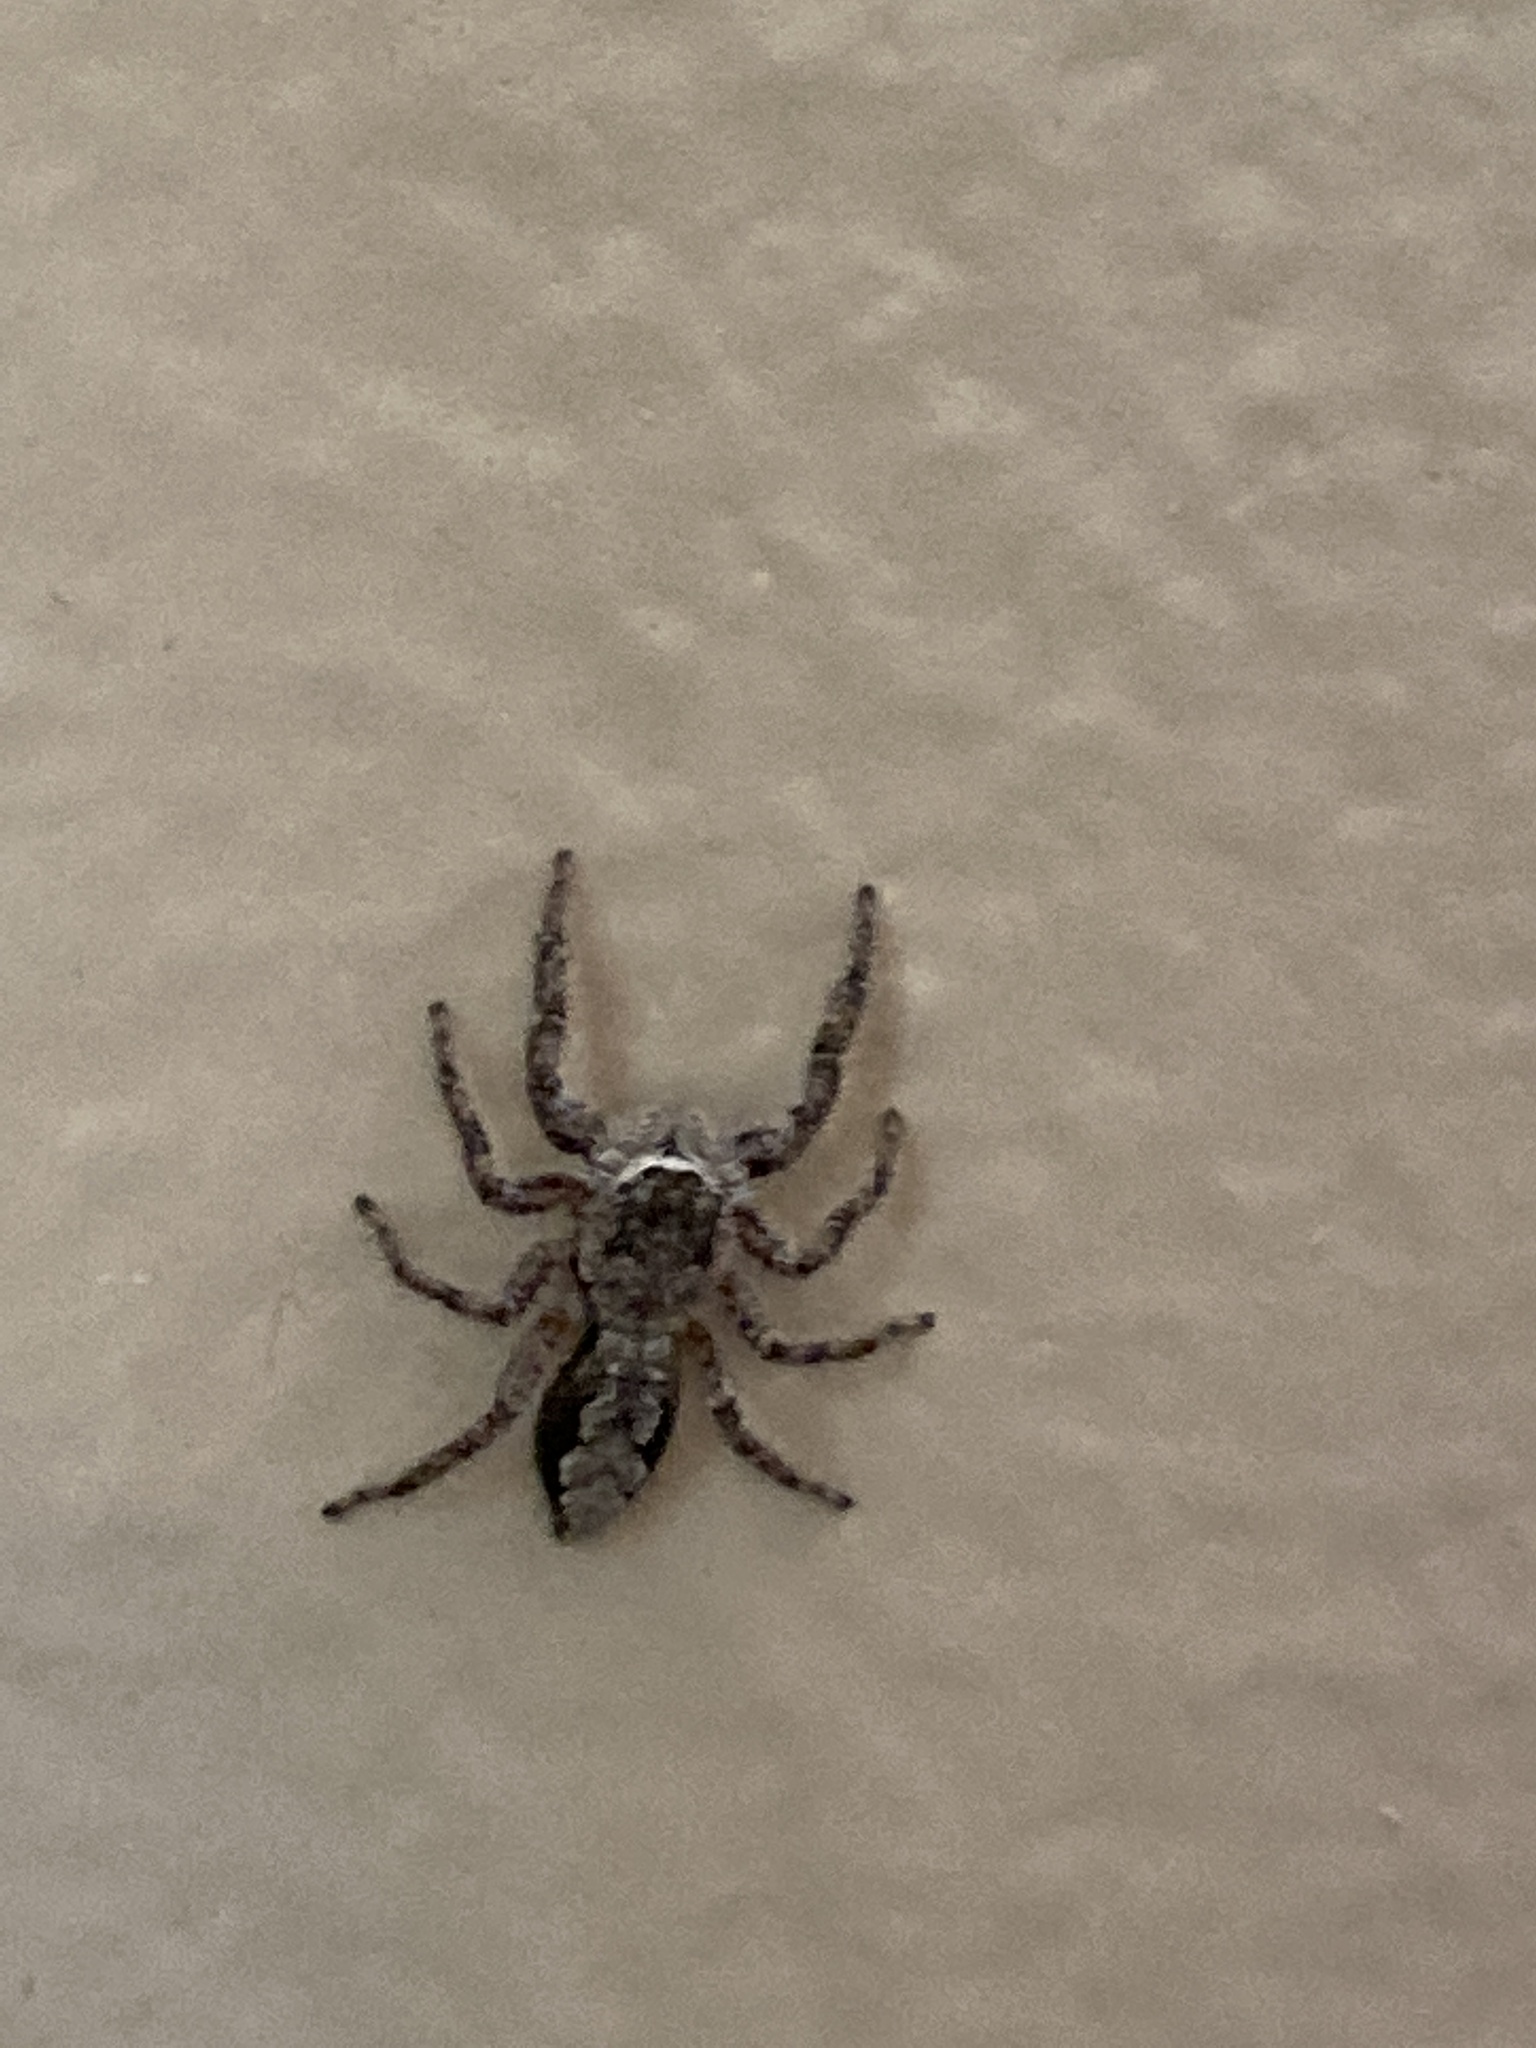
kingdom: Animalia
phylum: Arthropoda
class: Arachnida
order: Araneae
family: Salticidae
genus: Platycryptus
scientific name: Platycryptus undatus
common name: Tan jumping spider
